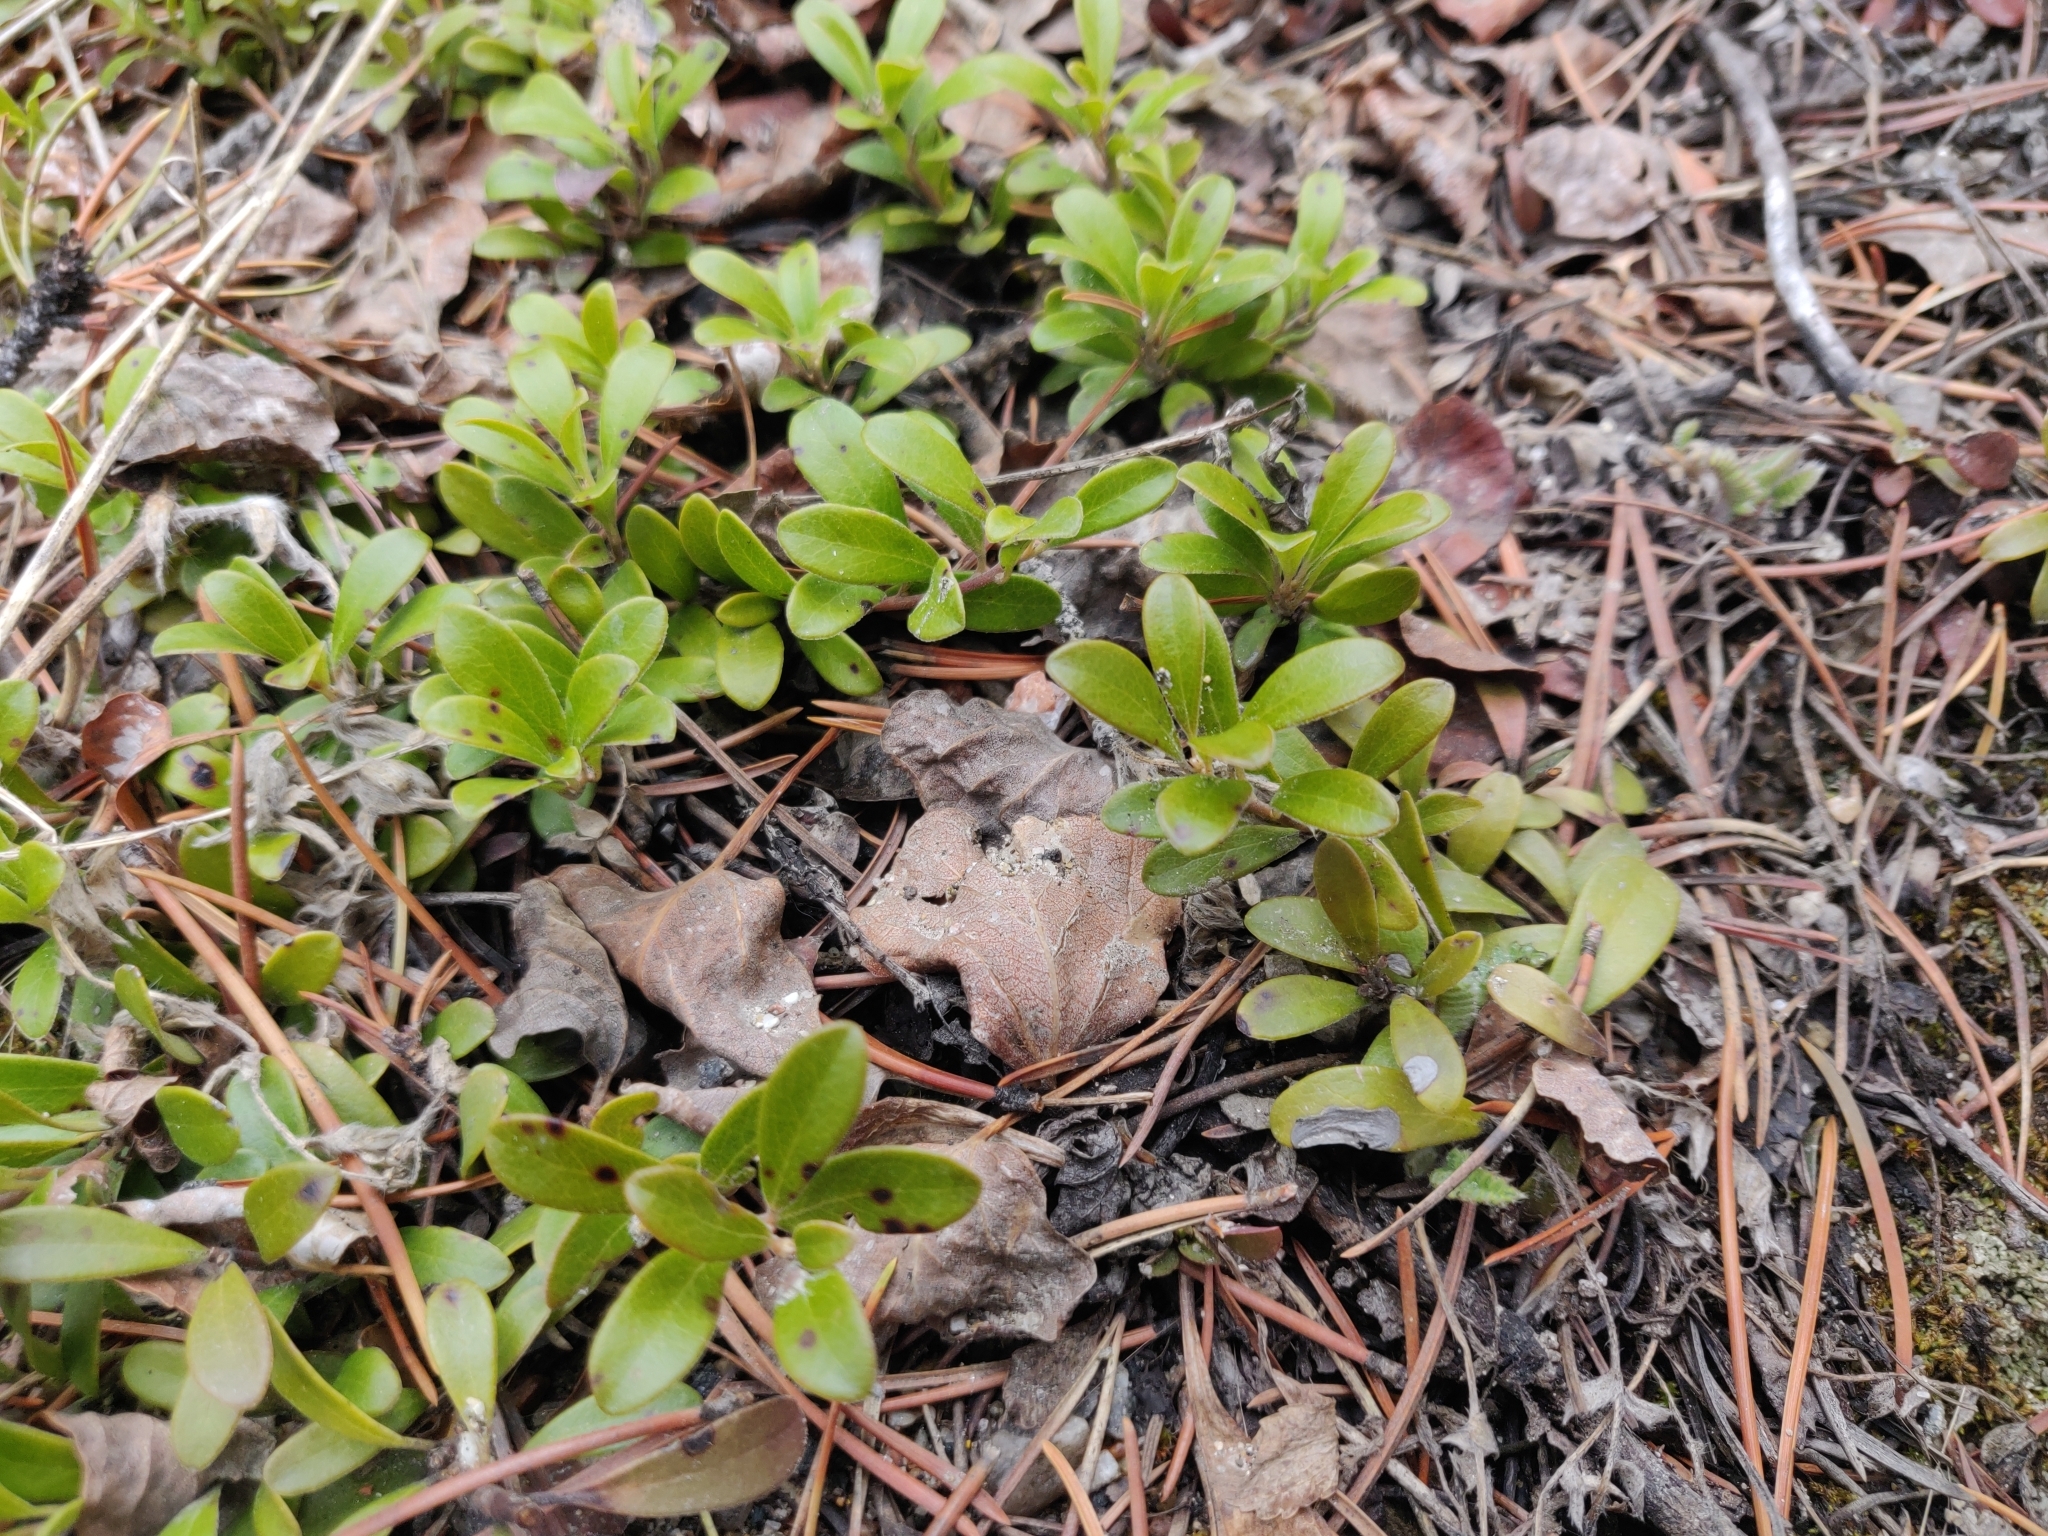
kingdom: Plantae
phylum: Tracheophyta
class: Magnoliopsida
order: Ericales
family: Ericaceae
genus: Arctostaphylos
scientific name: Arctostaphylos uva-ursi
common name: Bearberry
